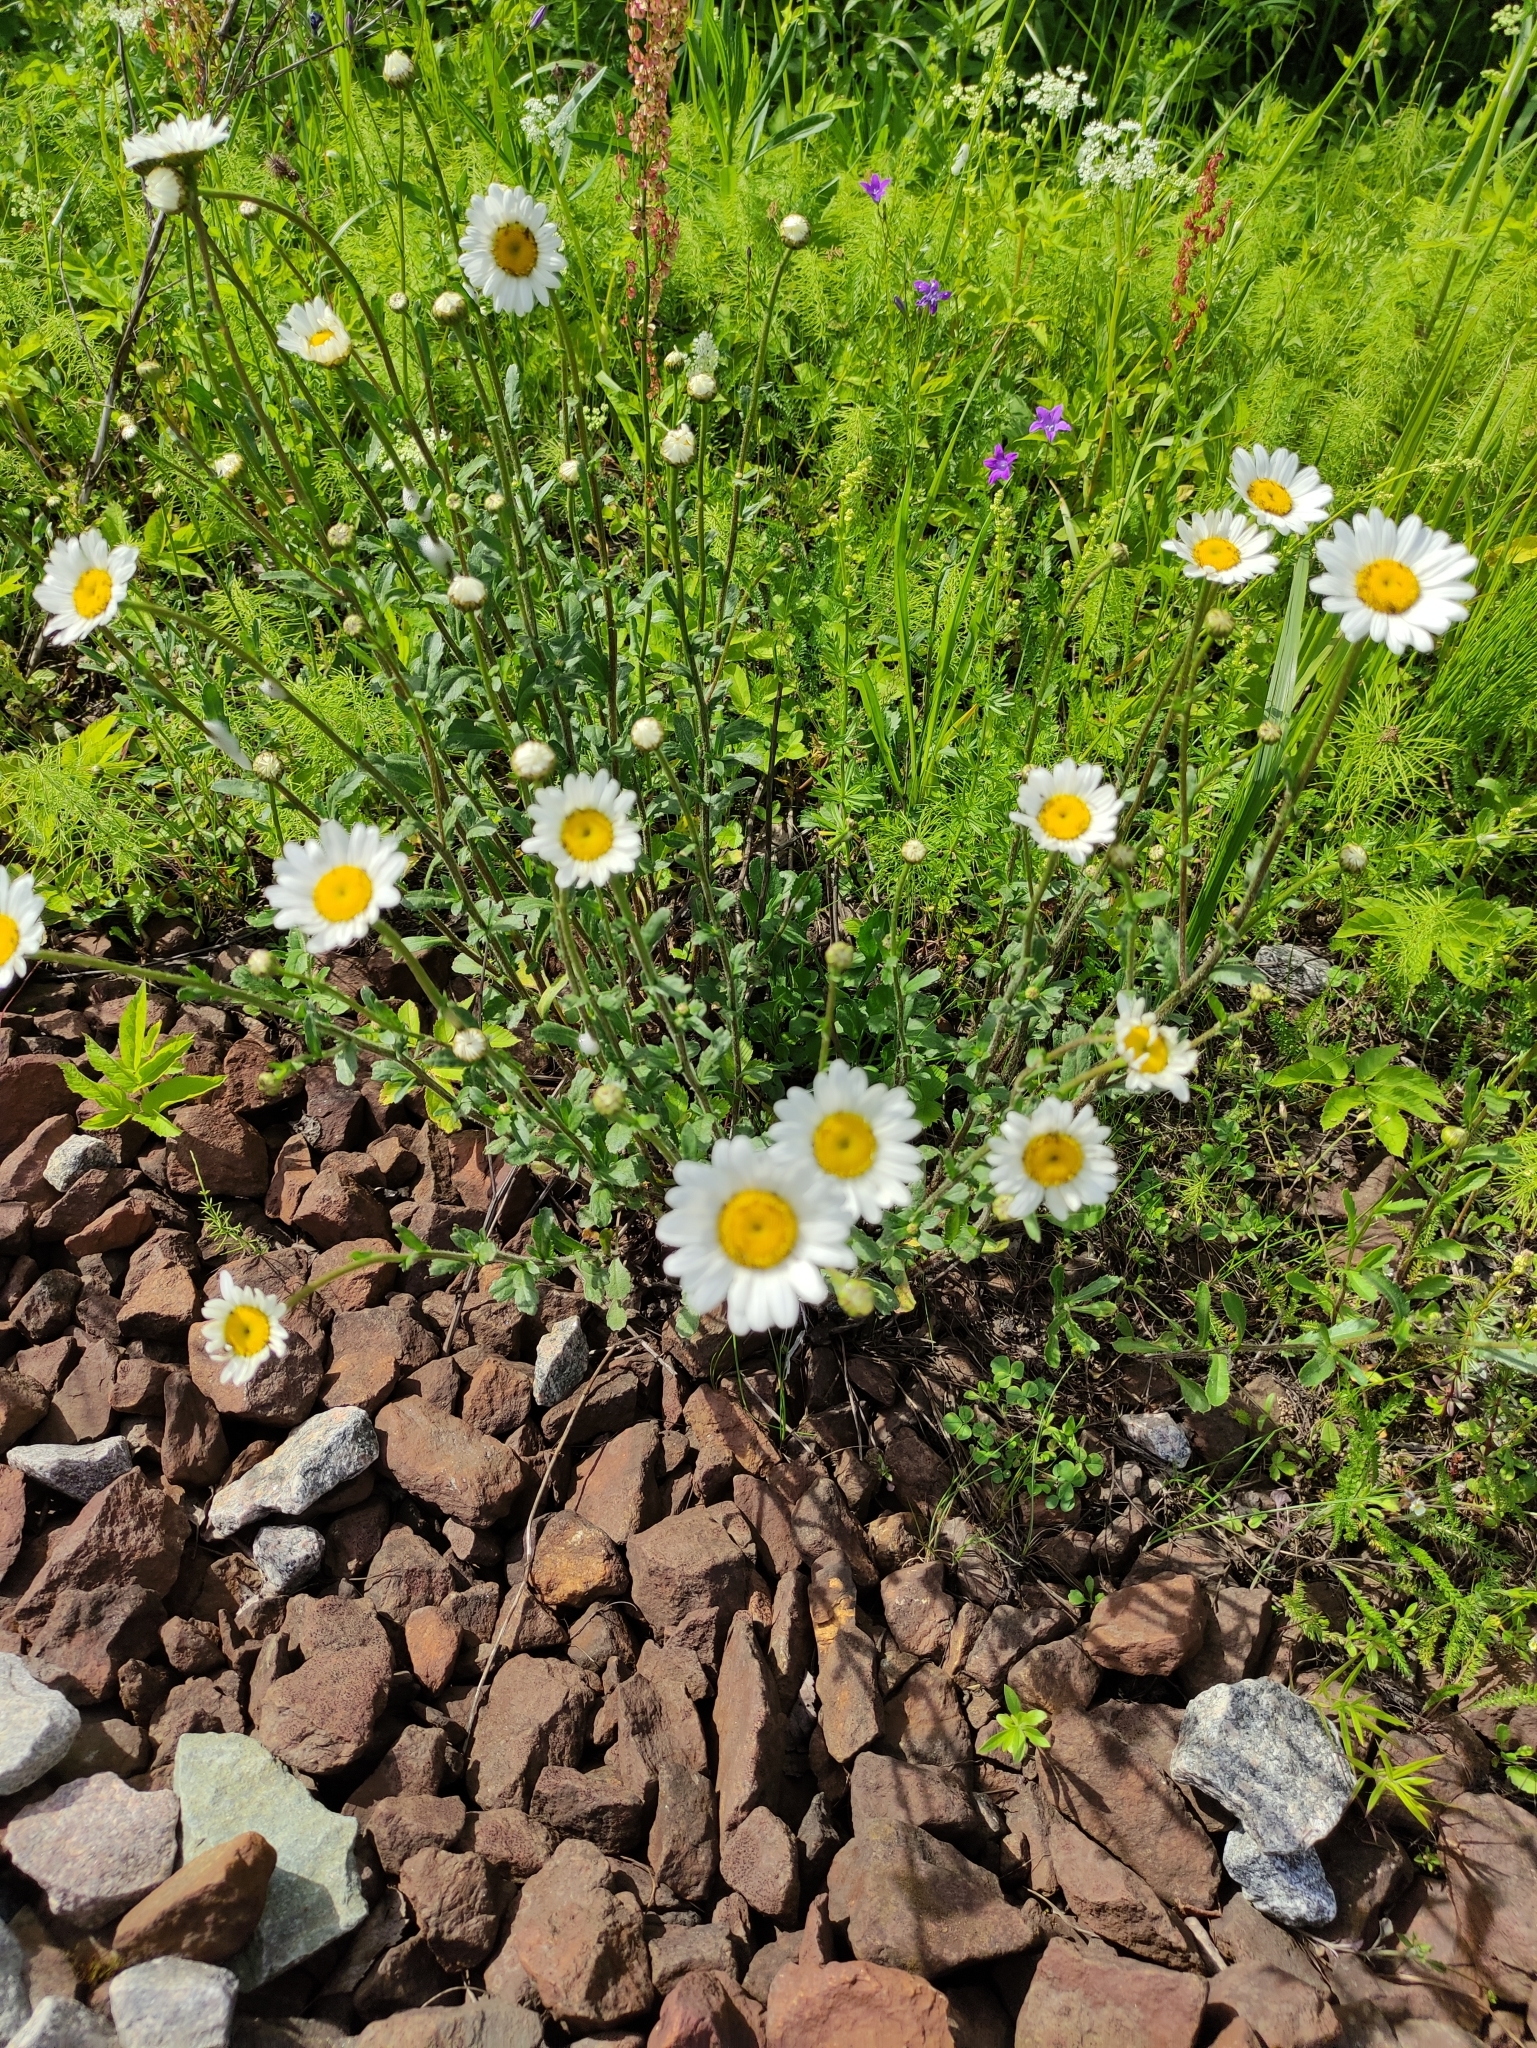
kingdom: Plantae
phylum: Tracheophyta
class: Magnoliopsida
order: Asterales
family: Asteraceae
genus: Leucanthemum
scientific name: Leucanthemum vulgare
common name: Oxeye daisy
